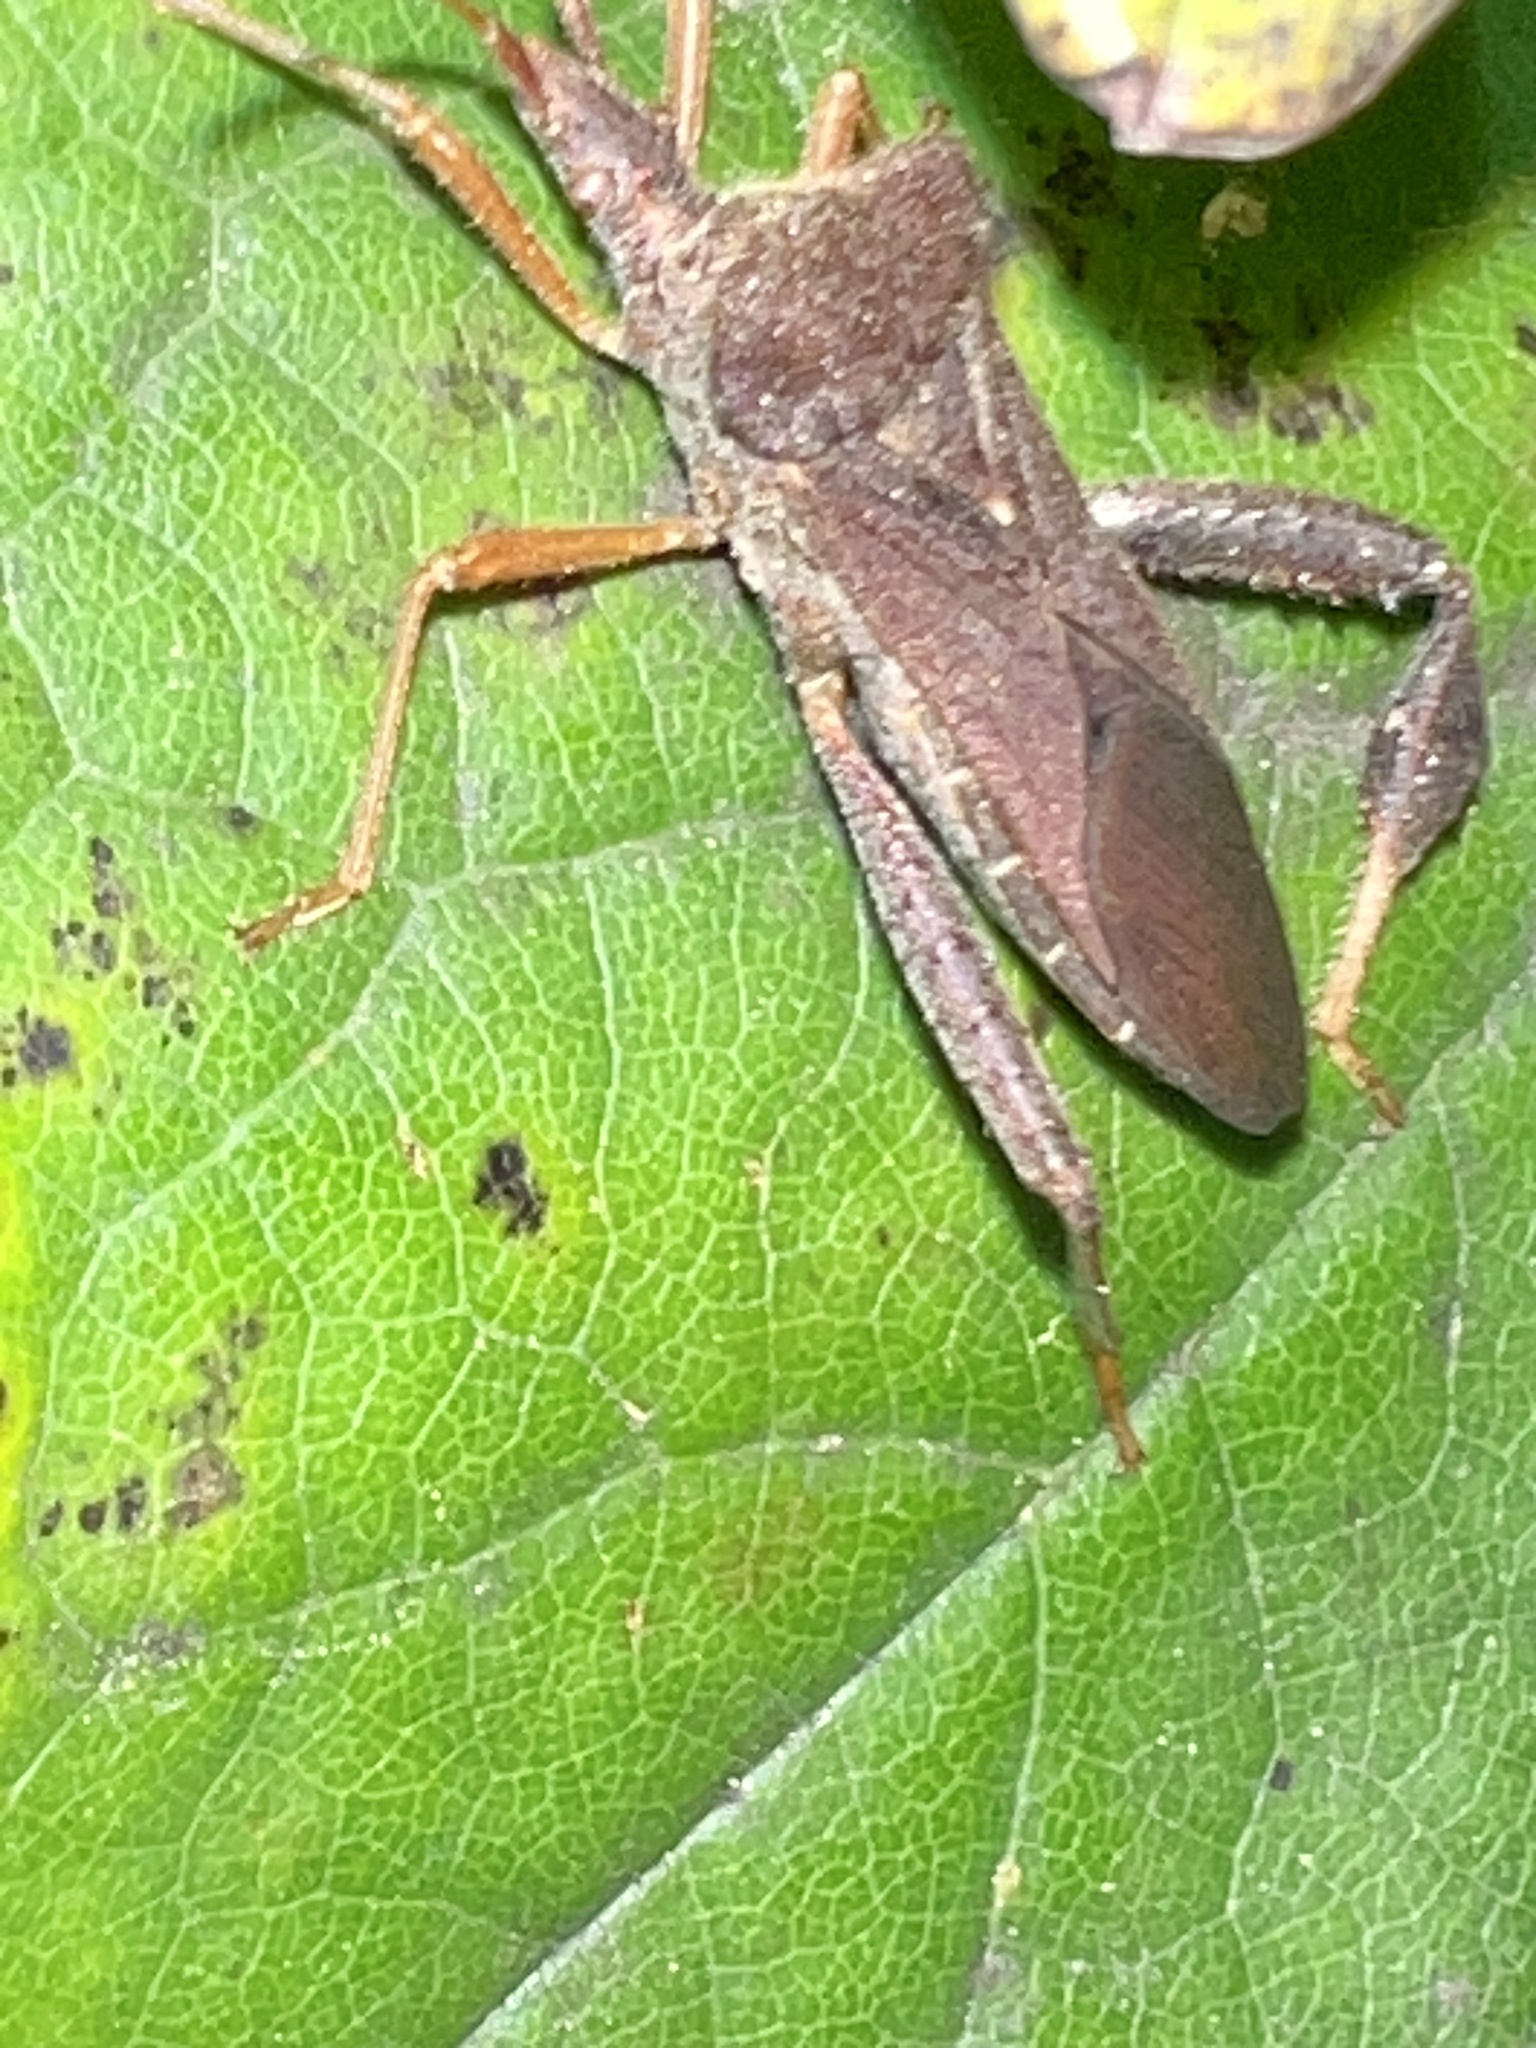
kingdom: Animalia
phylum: Arthropoda
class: Insecta
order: Hemiptera
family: Coreidae
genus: Leptoglossus
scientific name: Leptoglossus fulvicornis
